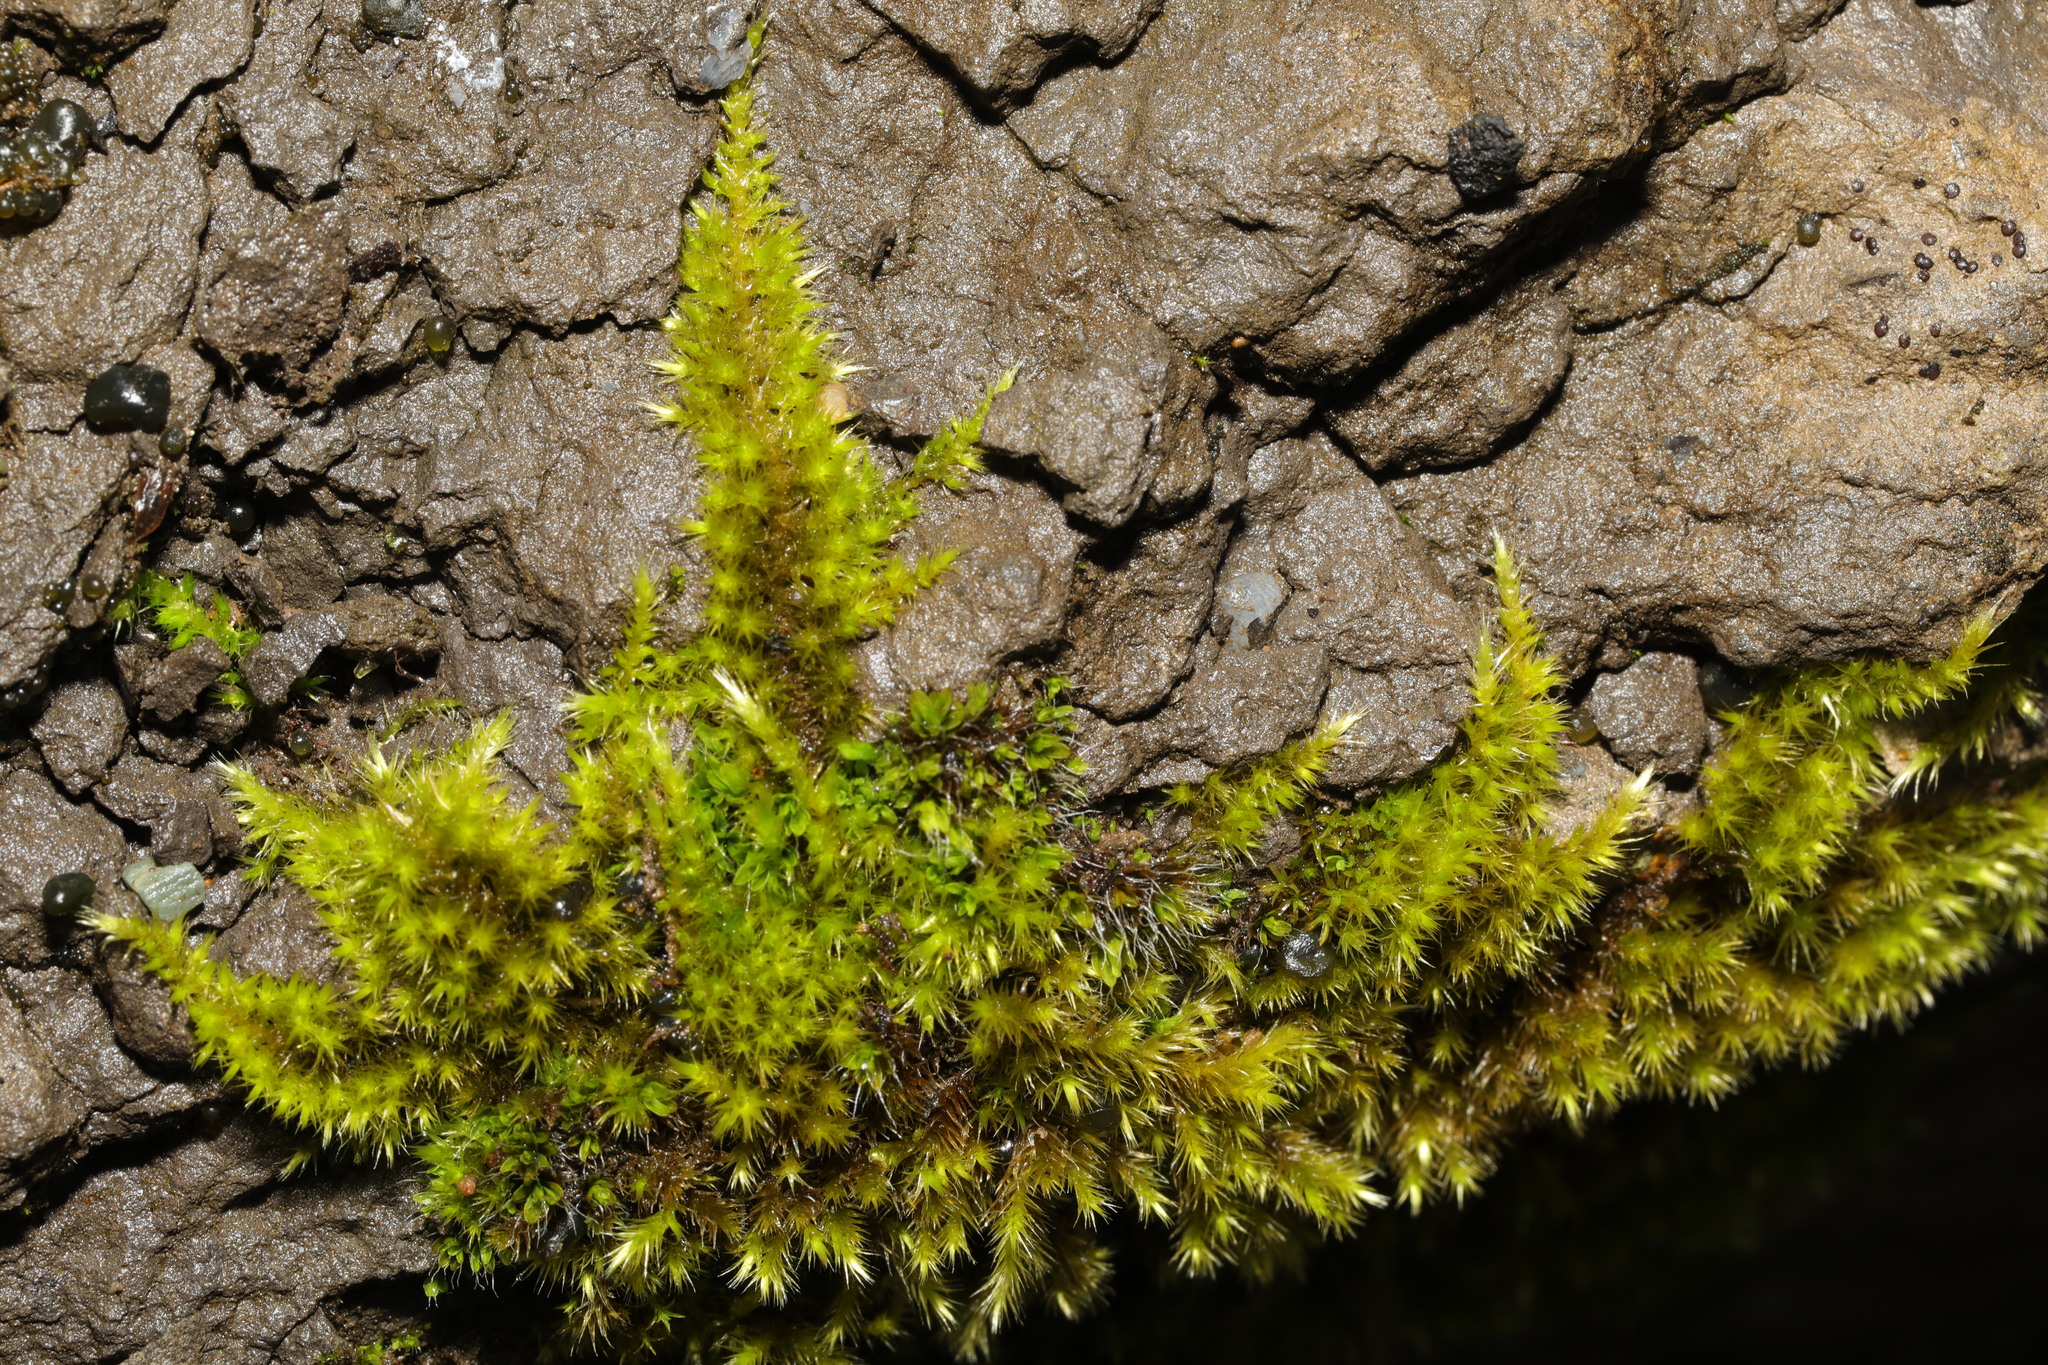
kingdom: Plantae
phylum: Bryophyta
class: Bryopsida
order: Hypnales
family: Brachytheciaceae
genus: Homalothecium
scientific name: Homalothecium sericeum
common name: Silky wall feather-moss
